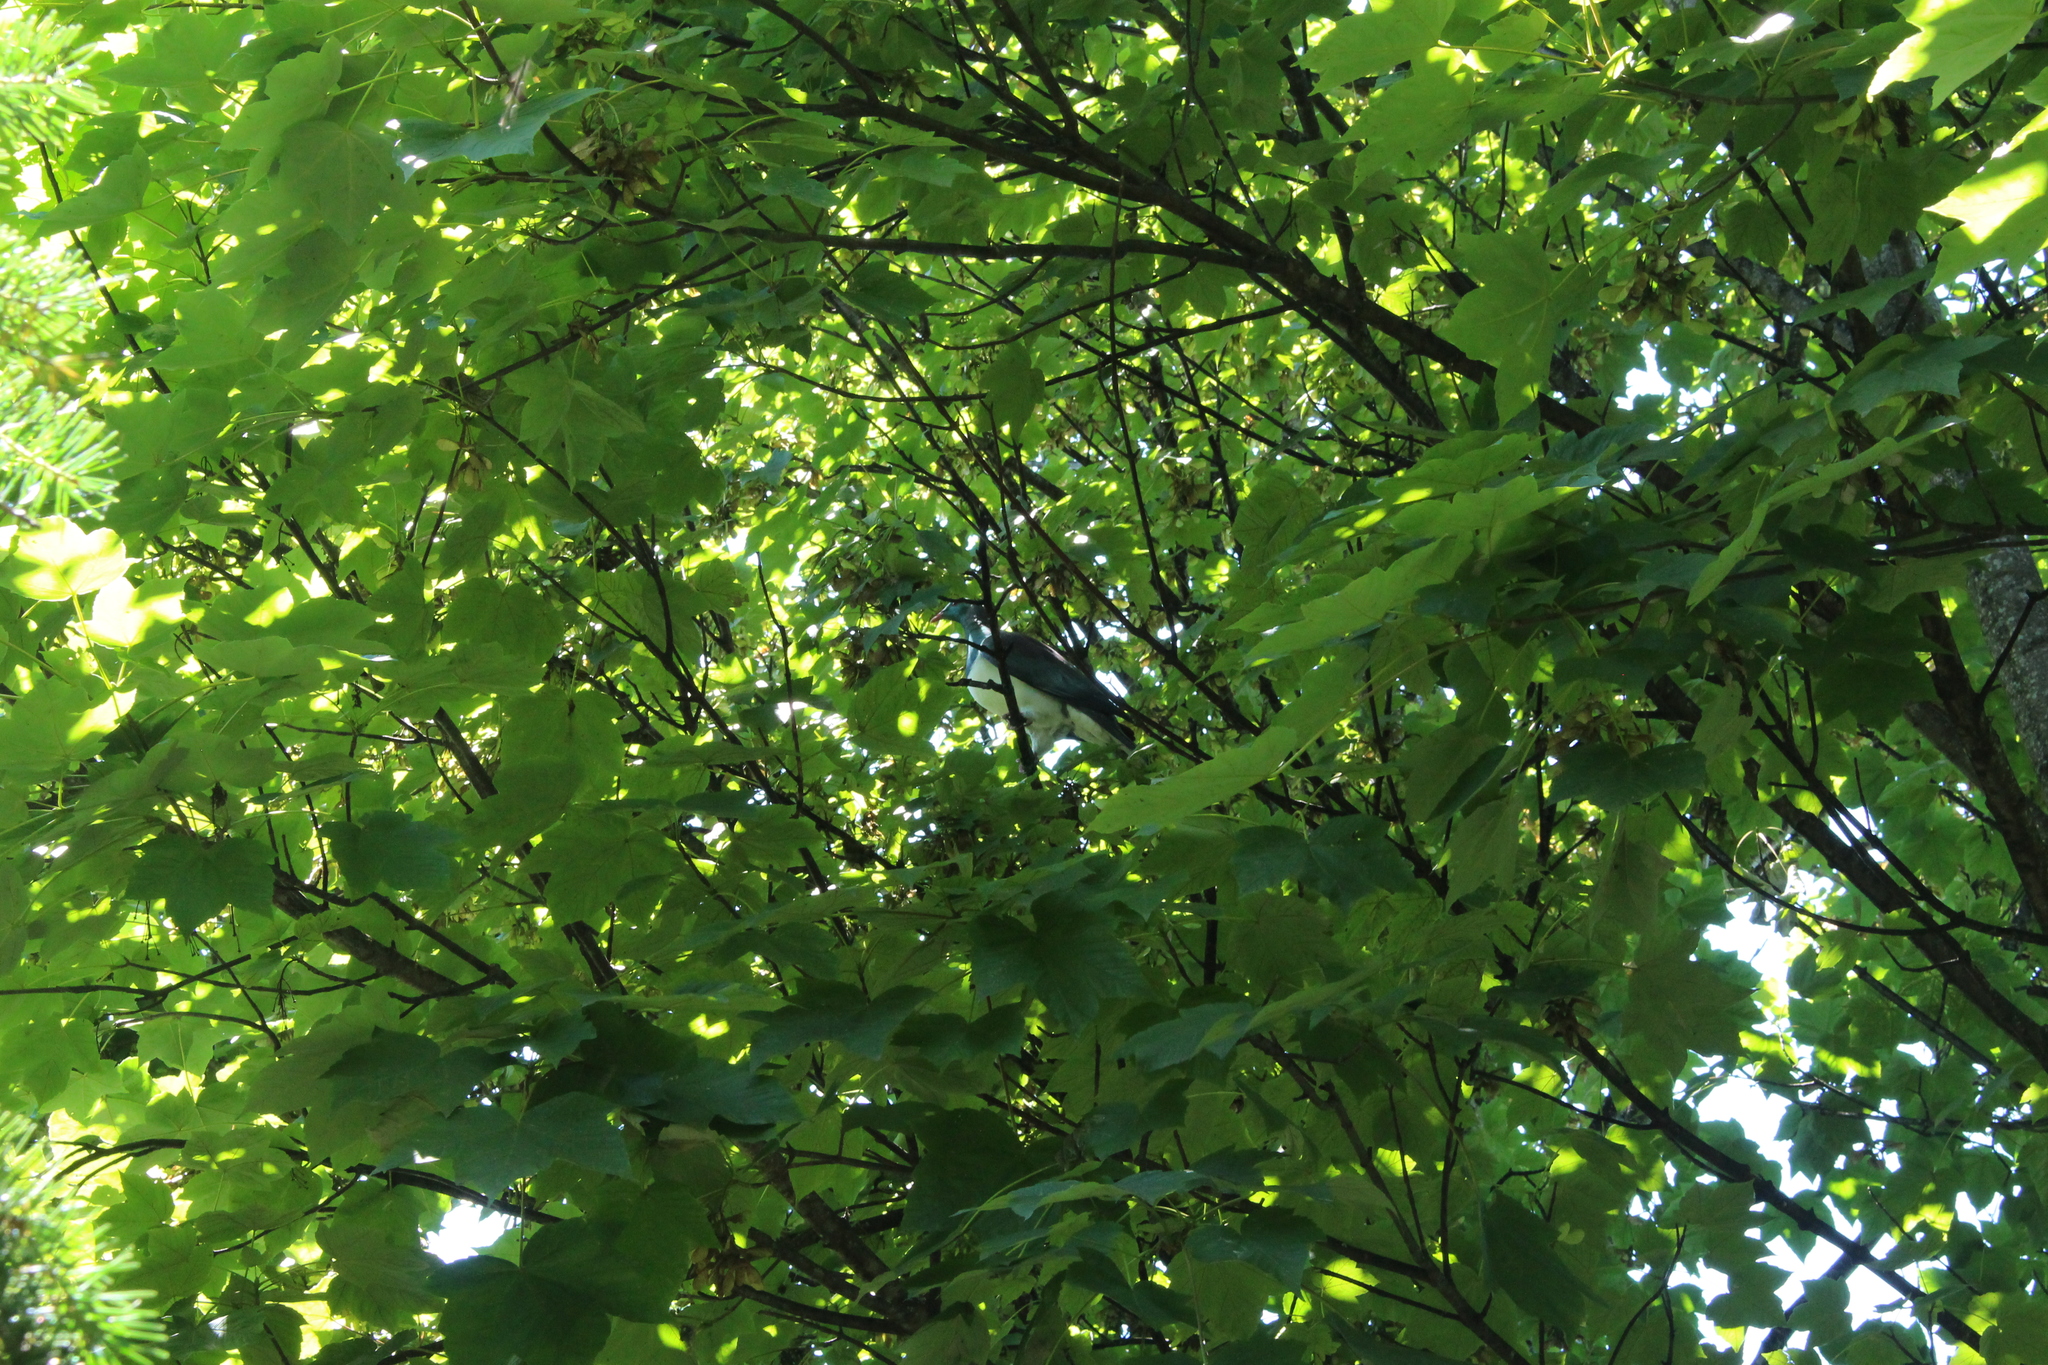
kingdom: Animalia
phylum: Chordata
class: Aves
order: Columbiformes
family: Columbidae
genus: Hemiphaga
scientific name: Hemiphaga novaeseelandiae
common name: New zealand pigeon
